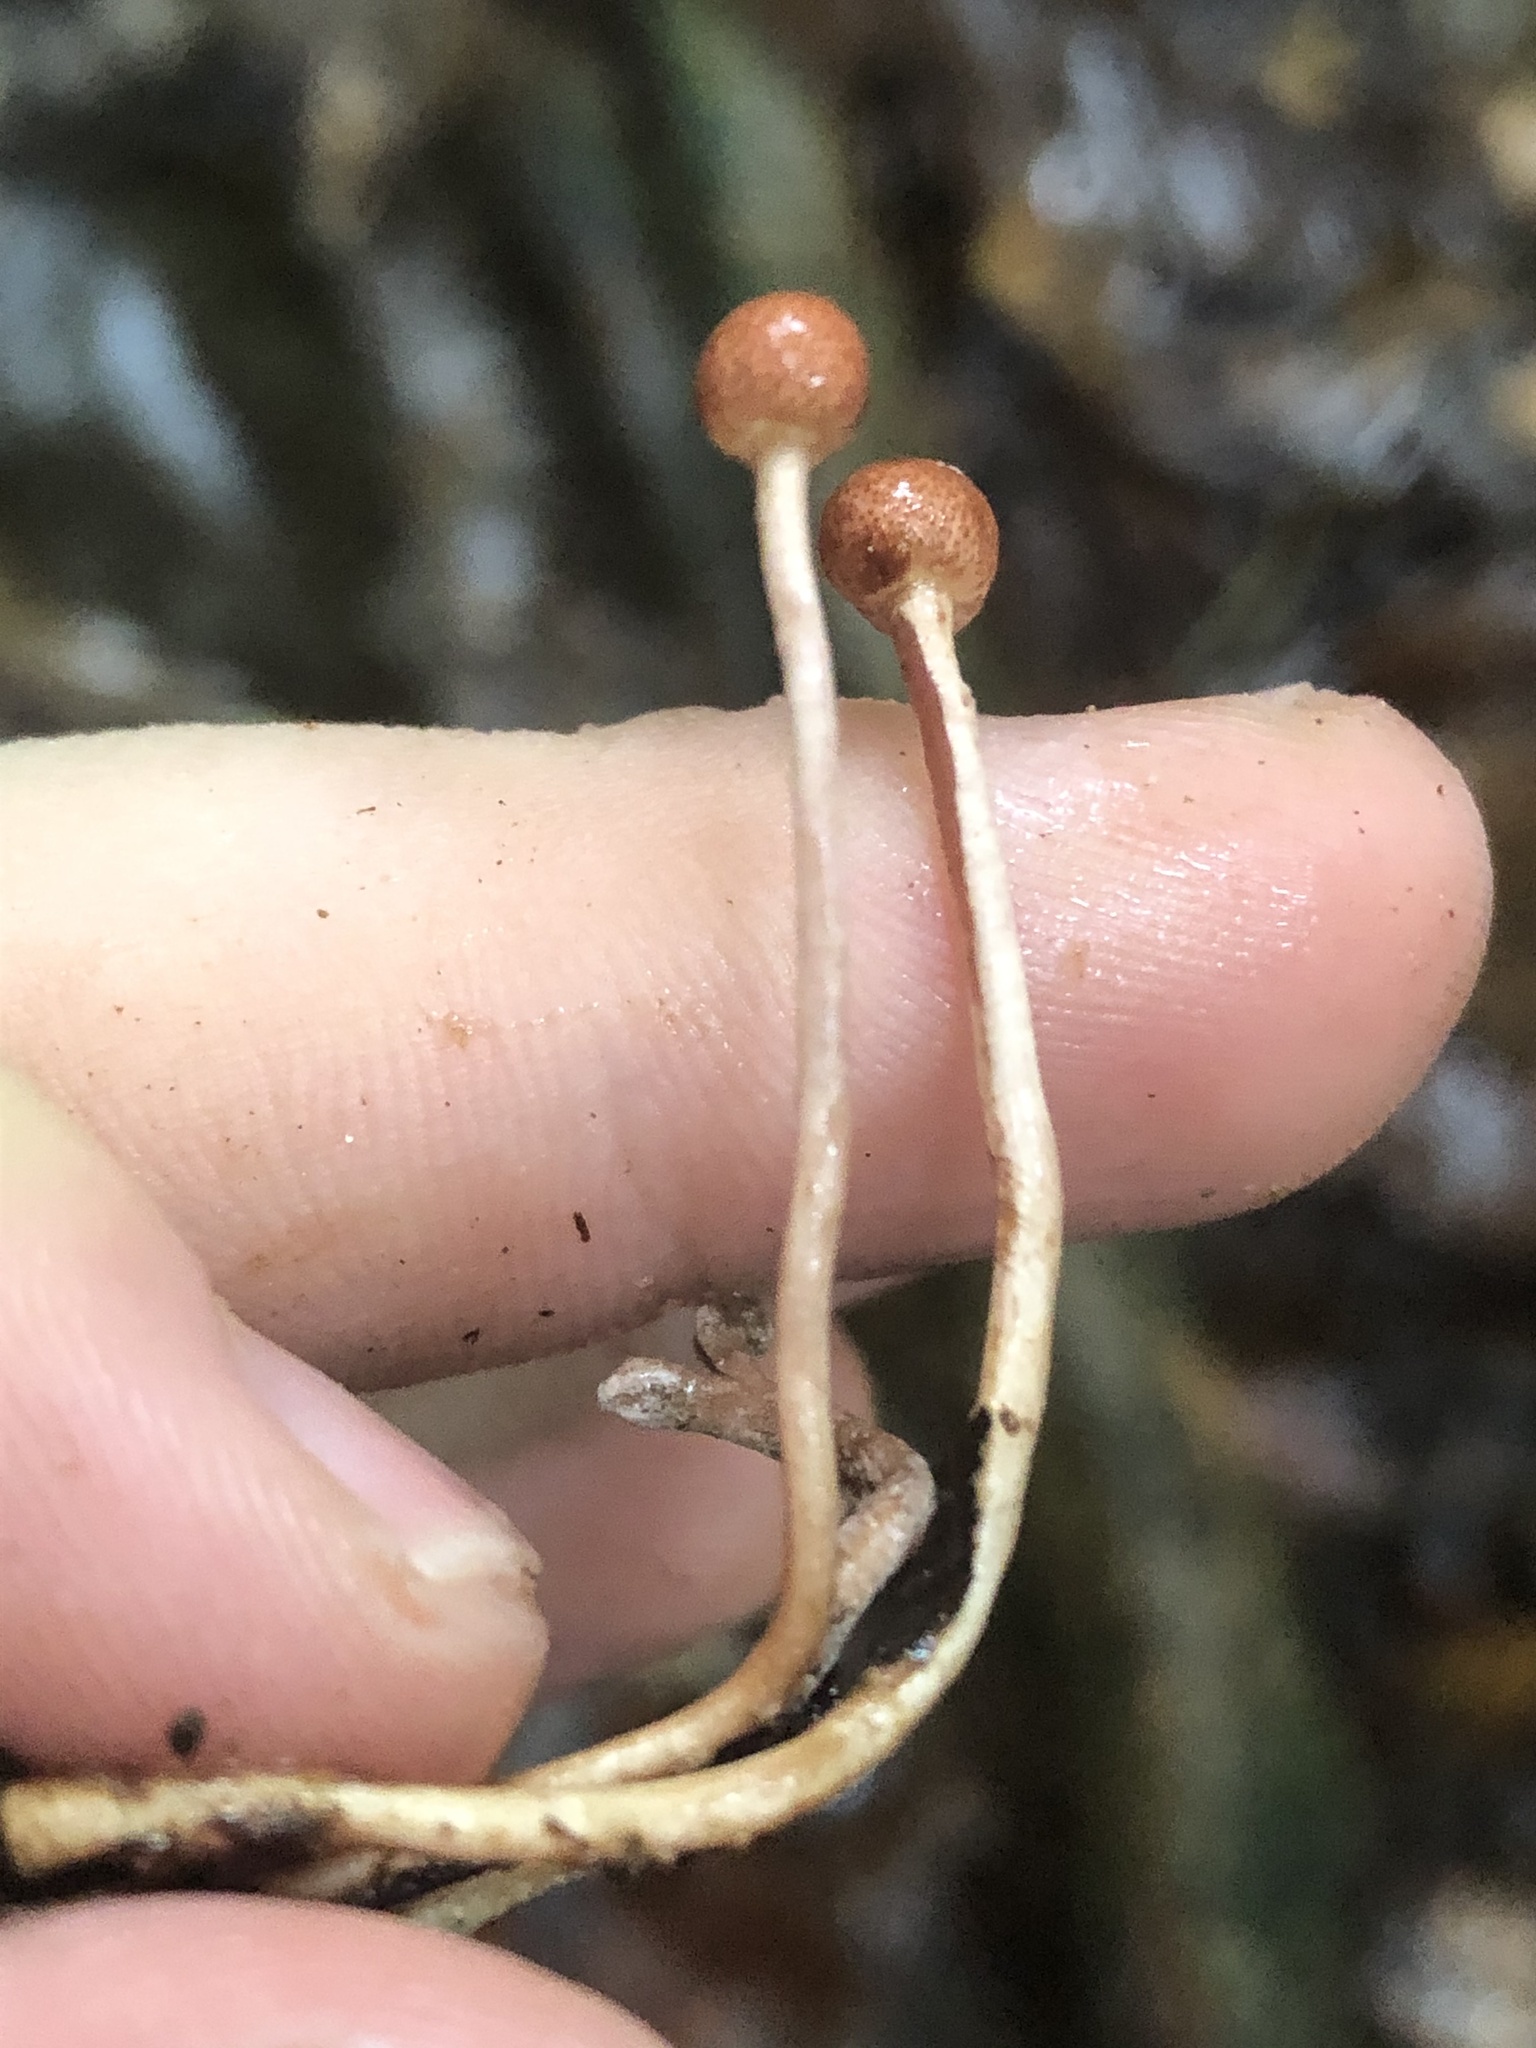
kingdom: Fungi
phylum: Ascomycota
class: Sordariomycetes
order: Hypocreales
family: Ophiocordycipitaceae
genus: Paraisaria
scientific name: Paraisaria amazonica
